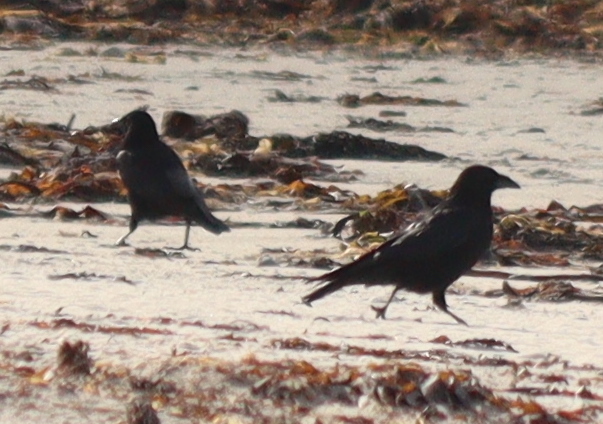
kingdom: Animalia
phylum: Chordata
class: Aves
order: Passeriformes
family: Corvidae
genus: Corvus
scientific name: Corvus corone
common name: Carrion crow
